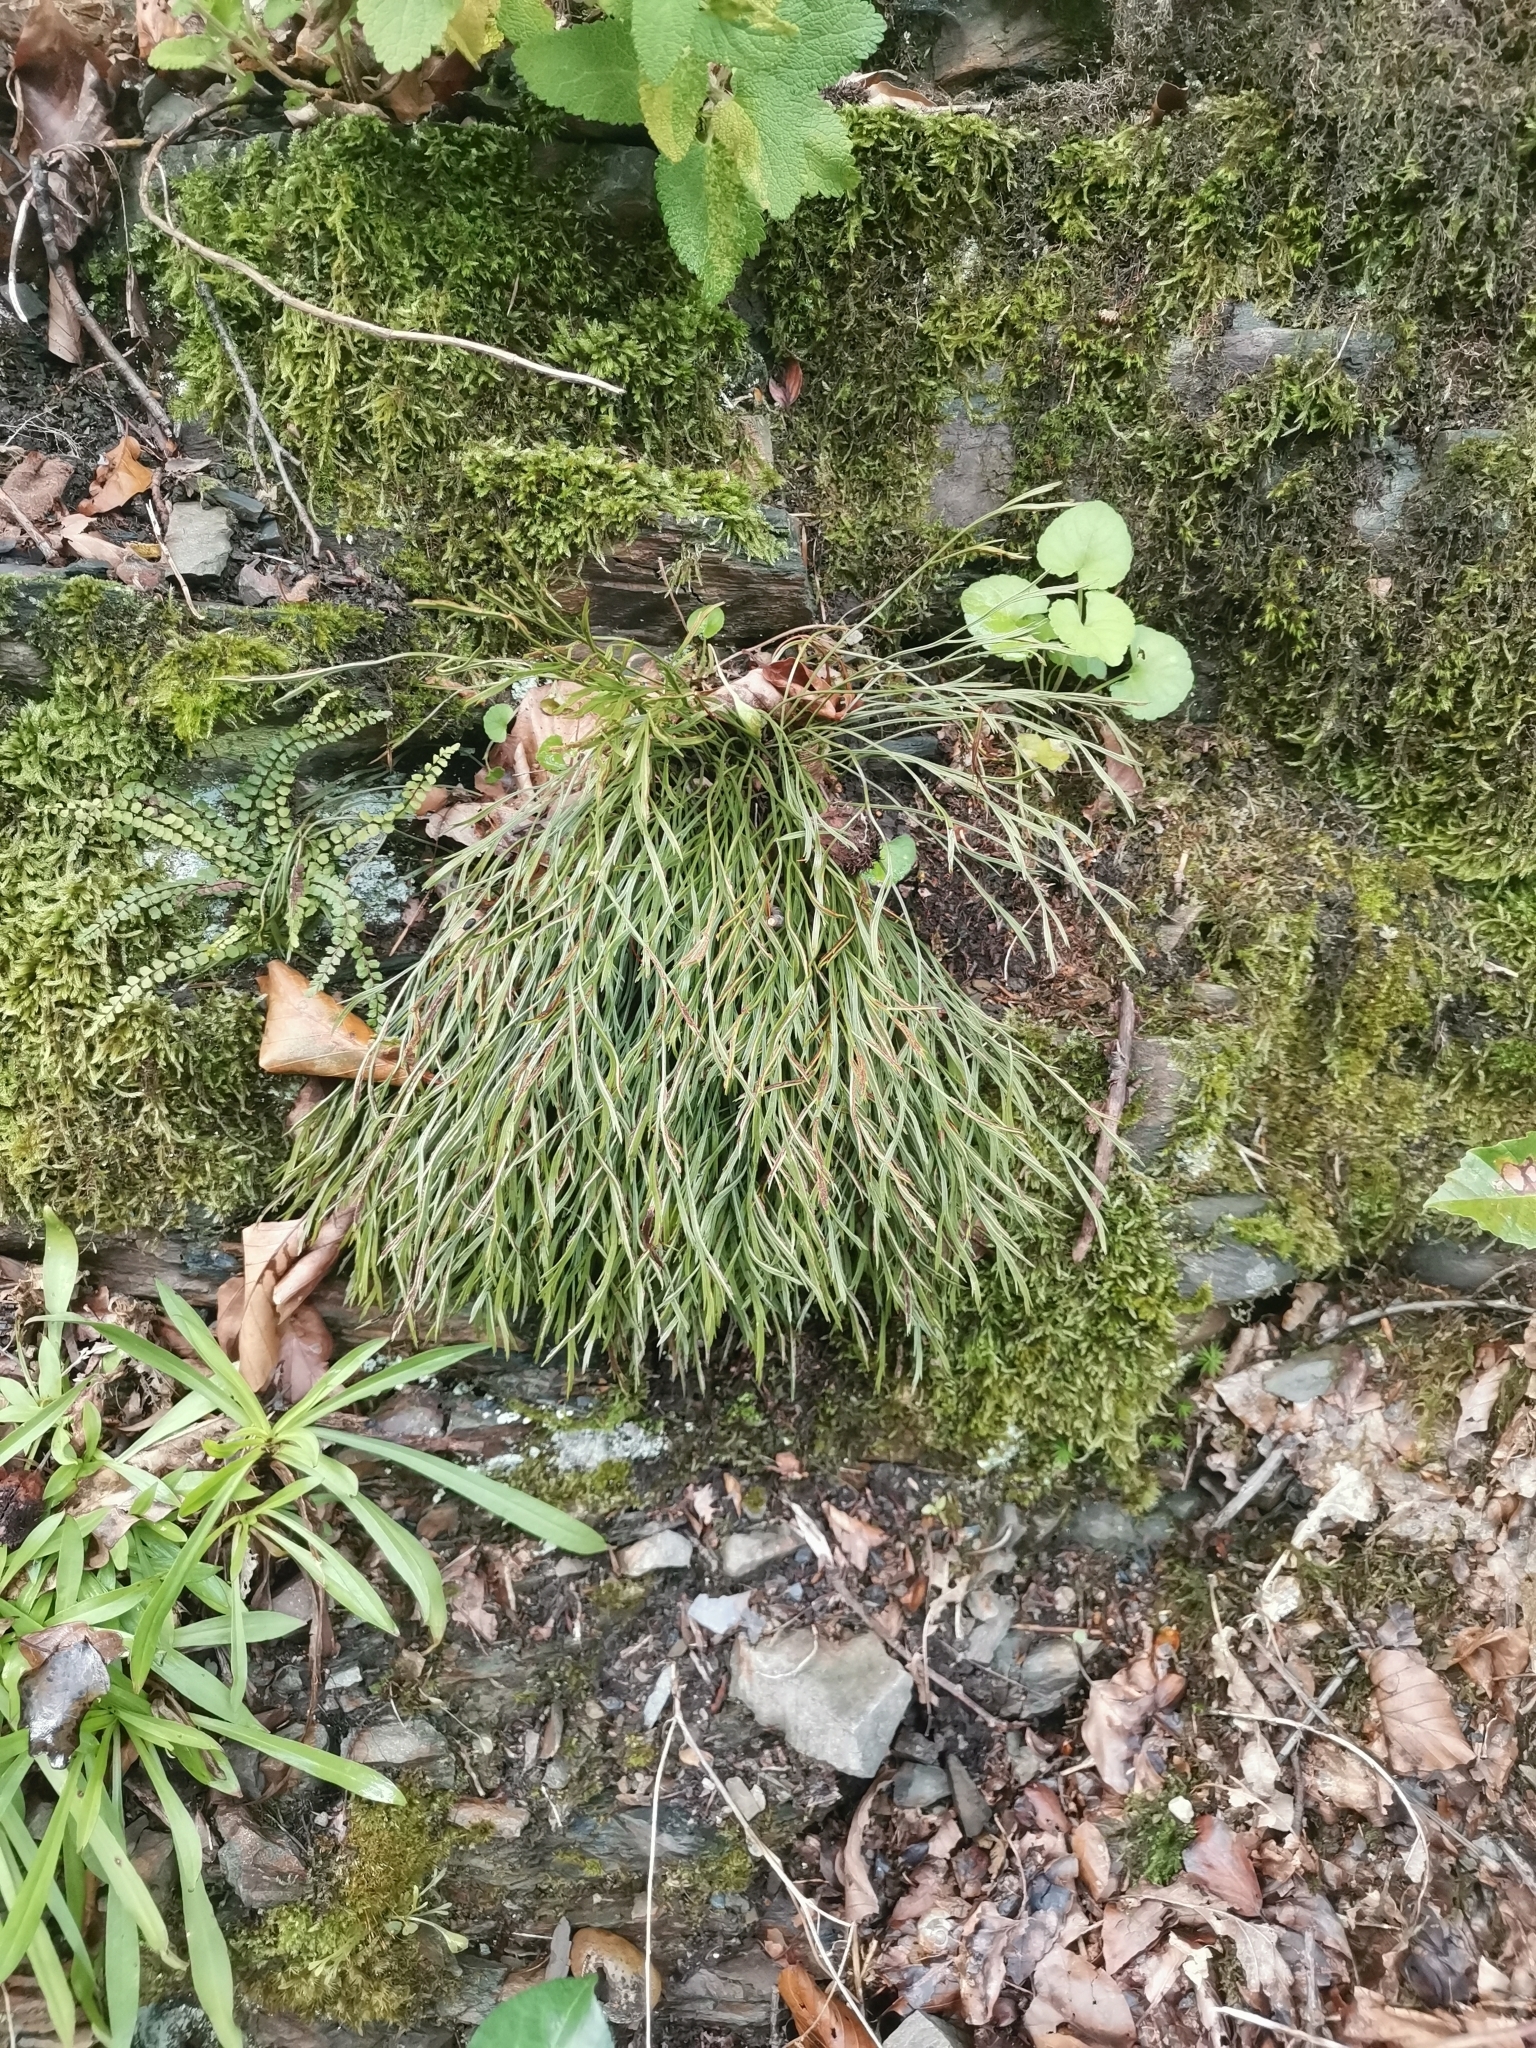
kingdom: Plantae
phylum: Tracheophyta
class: Polypodiopsida
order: Polypodiales
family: Aspleniaceae
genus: Asplenium
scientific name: Asplenium septentrionale
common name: Forked spleenwort
